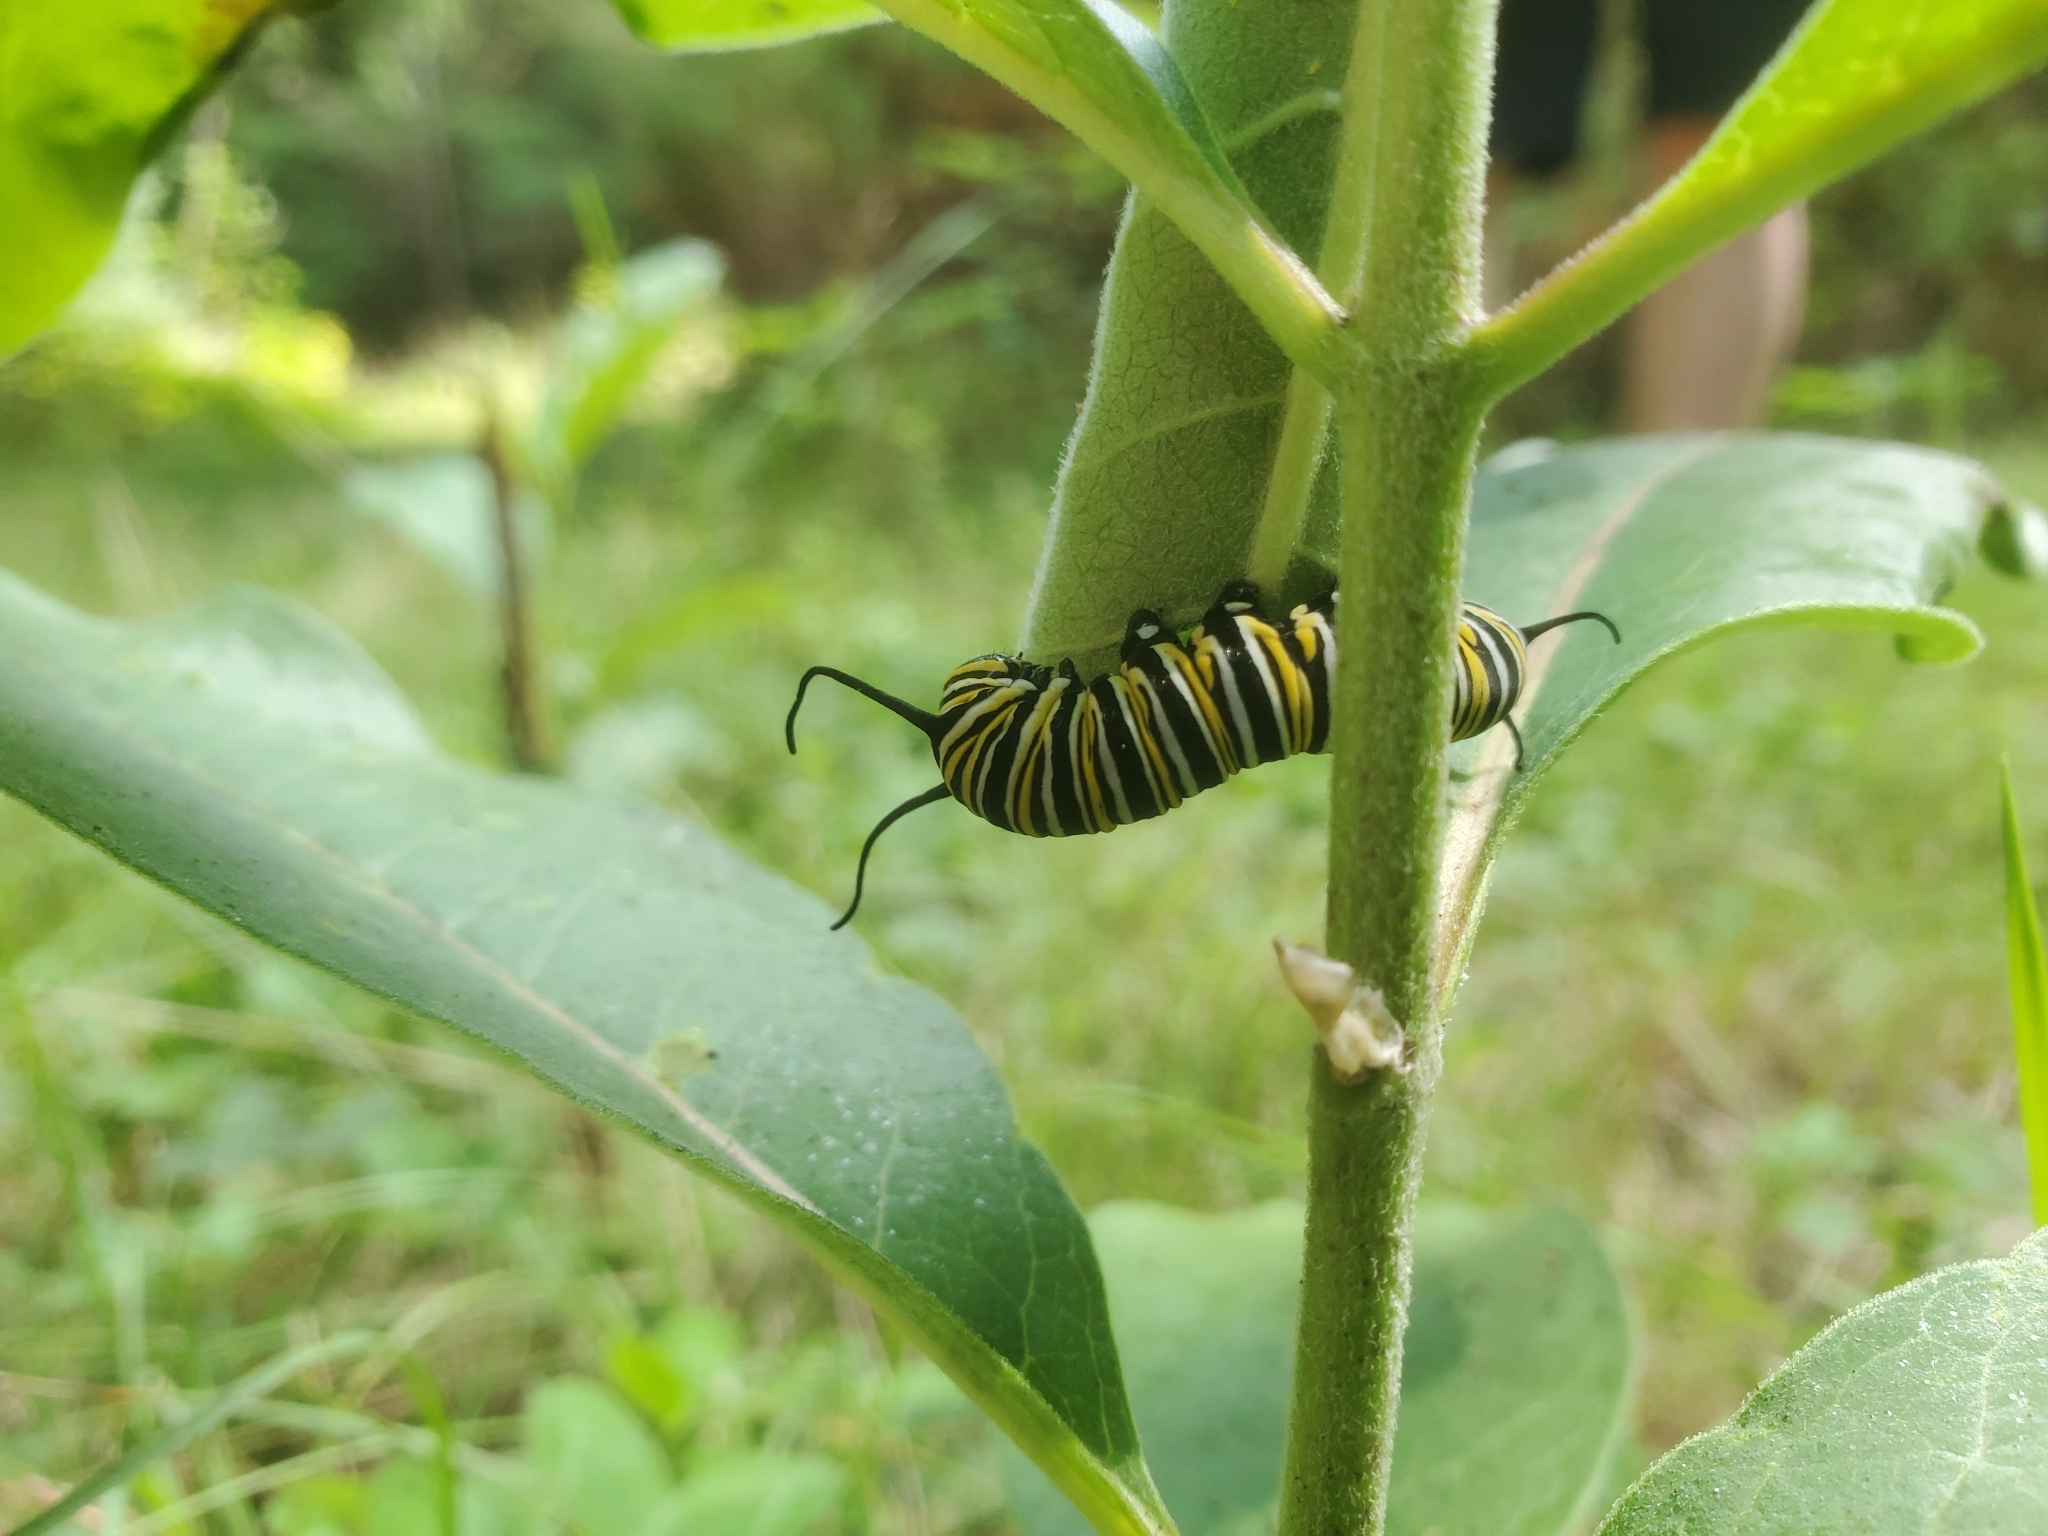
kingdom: Animalia
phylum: Arthropoda
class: Insecta
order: Lepidoptera
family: Nymphalidae
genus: Danaus
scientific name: Danaus plexippus
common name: Monarch
